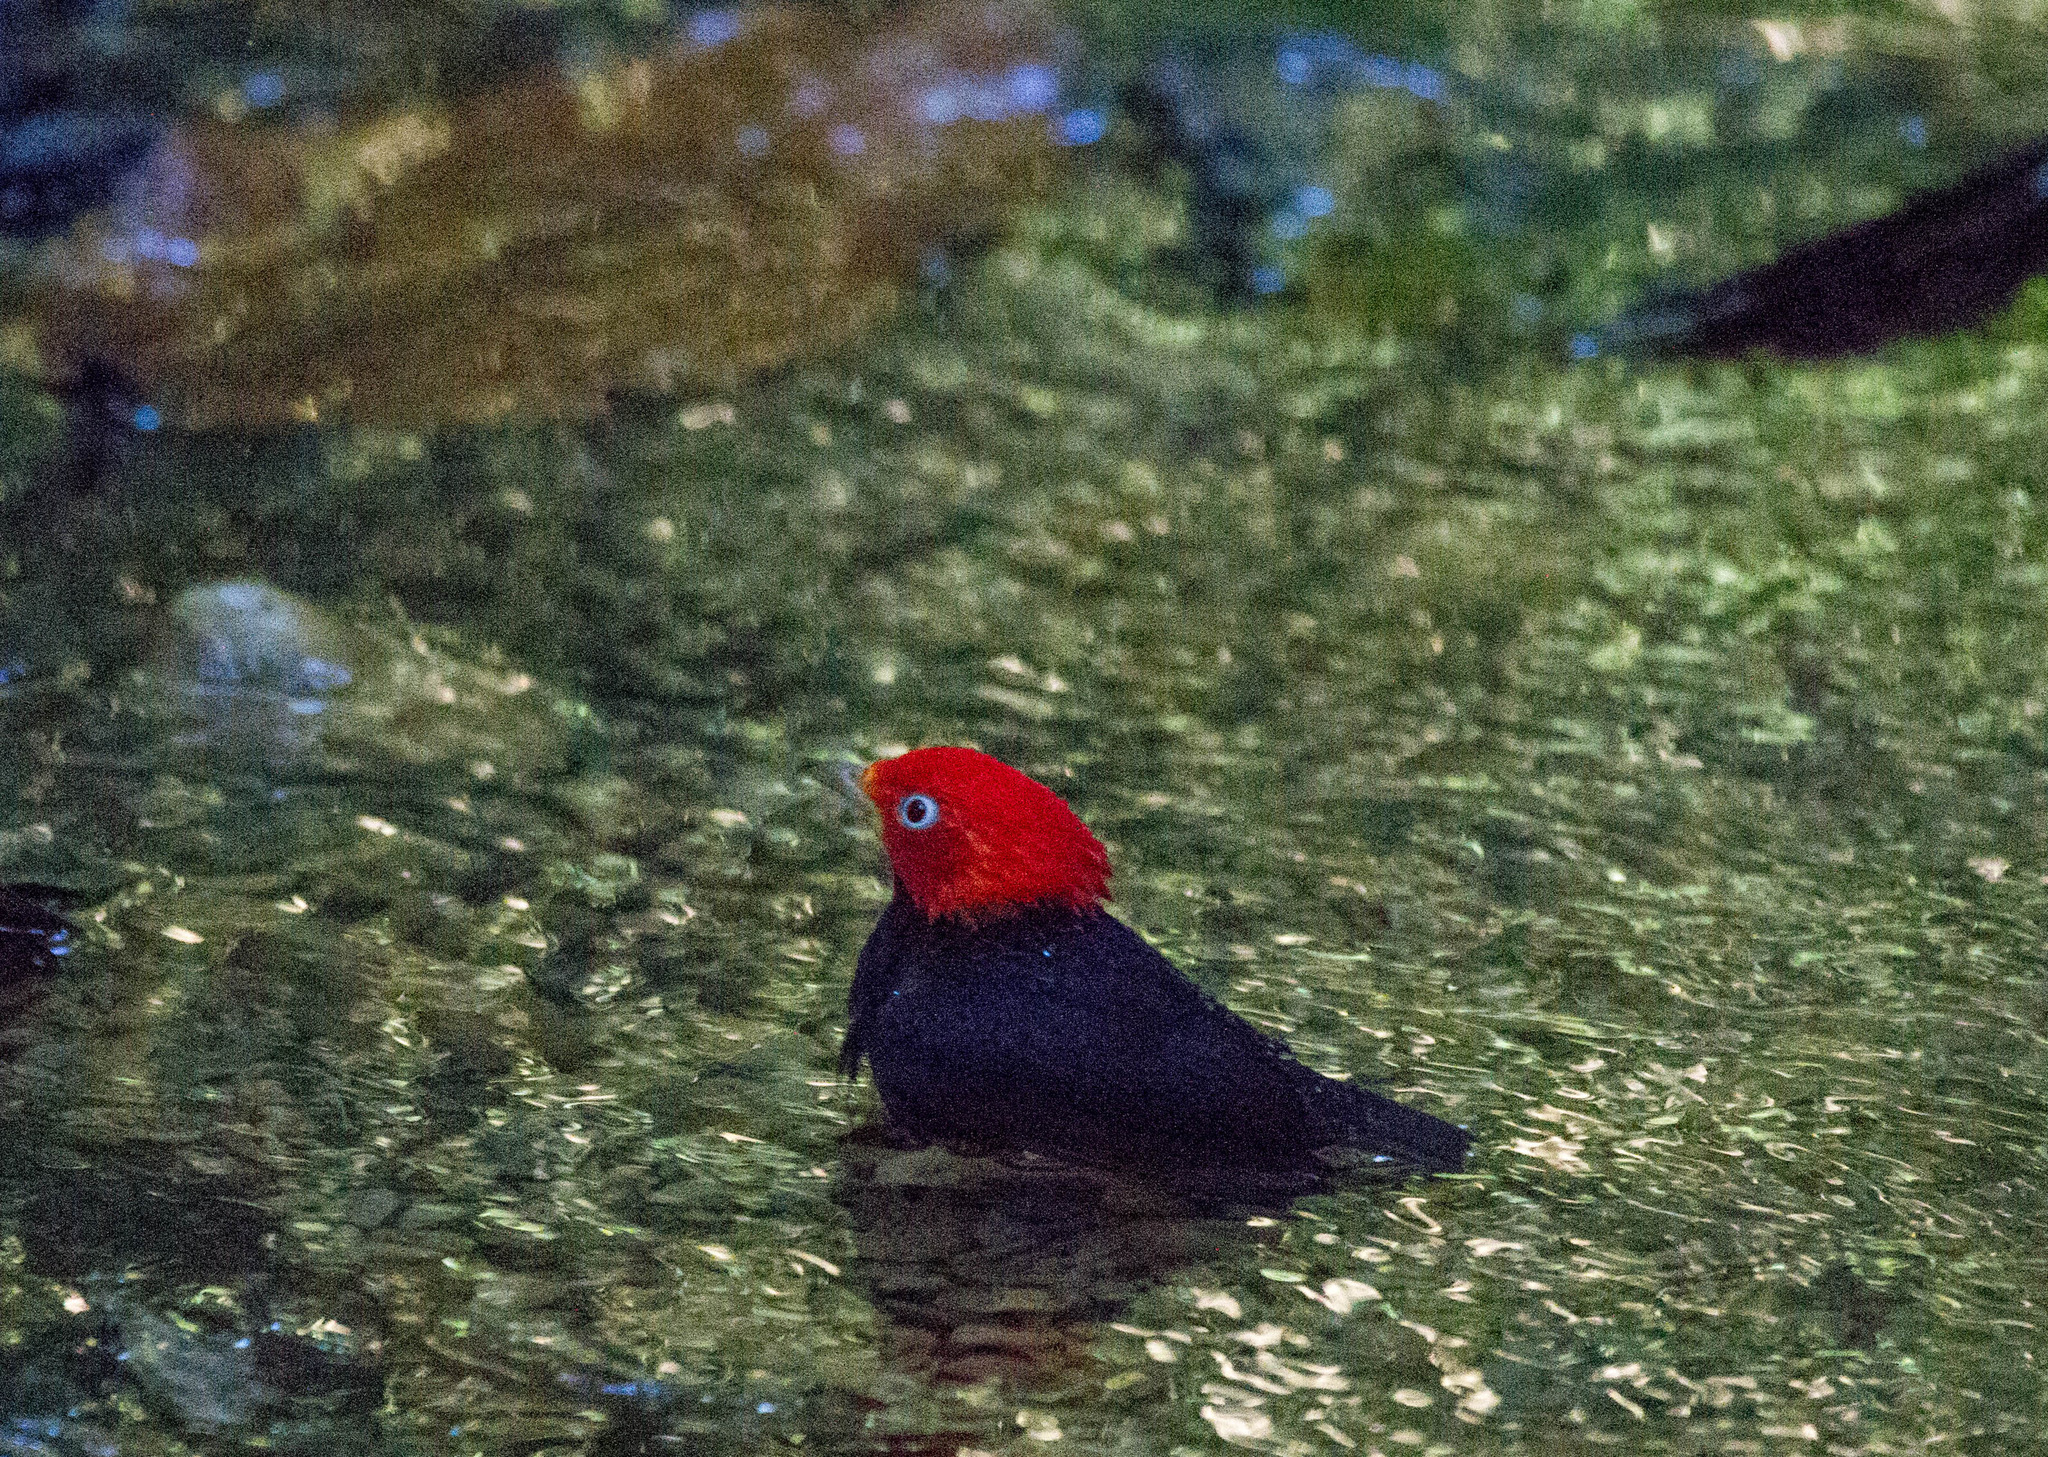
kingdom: Animalia
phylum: Chordata
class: Aves
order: Passeriformes
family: Pipridae
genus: Pipra
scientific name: Pipra mentalis
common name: Red-capped manakin
